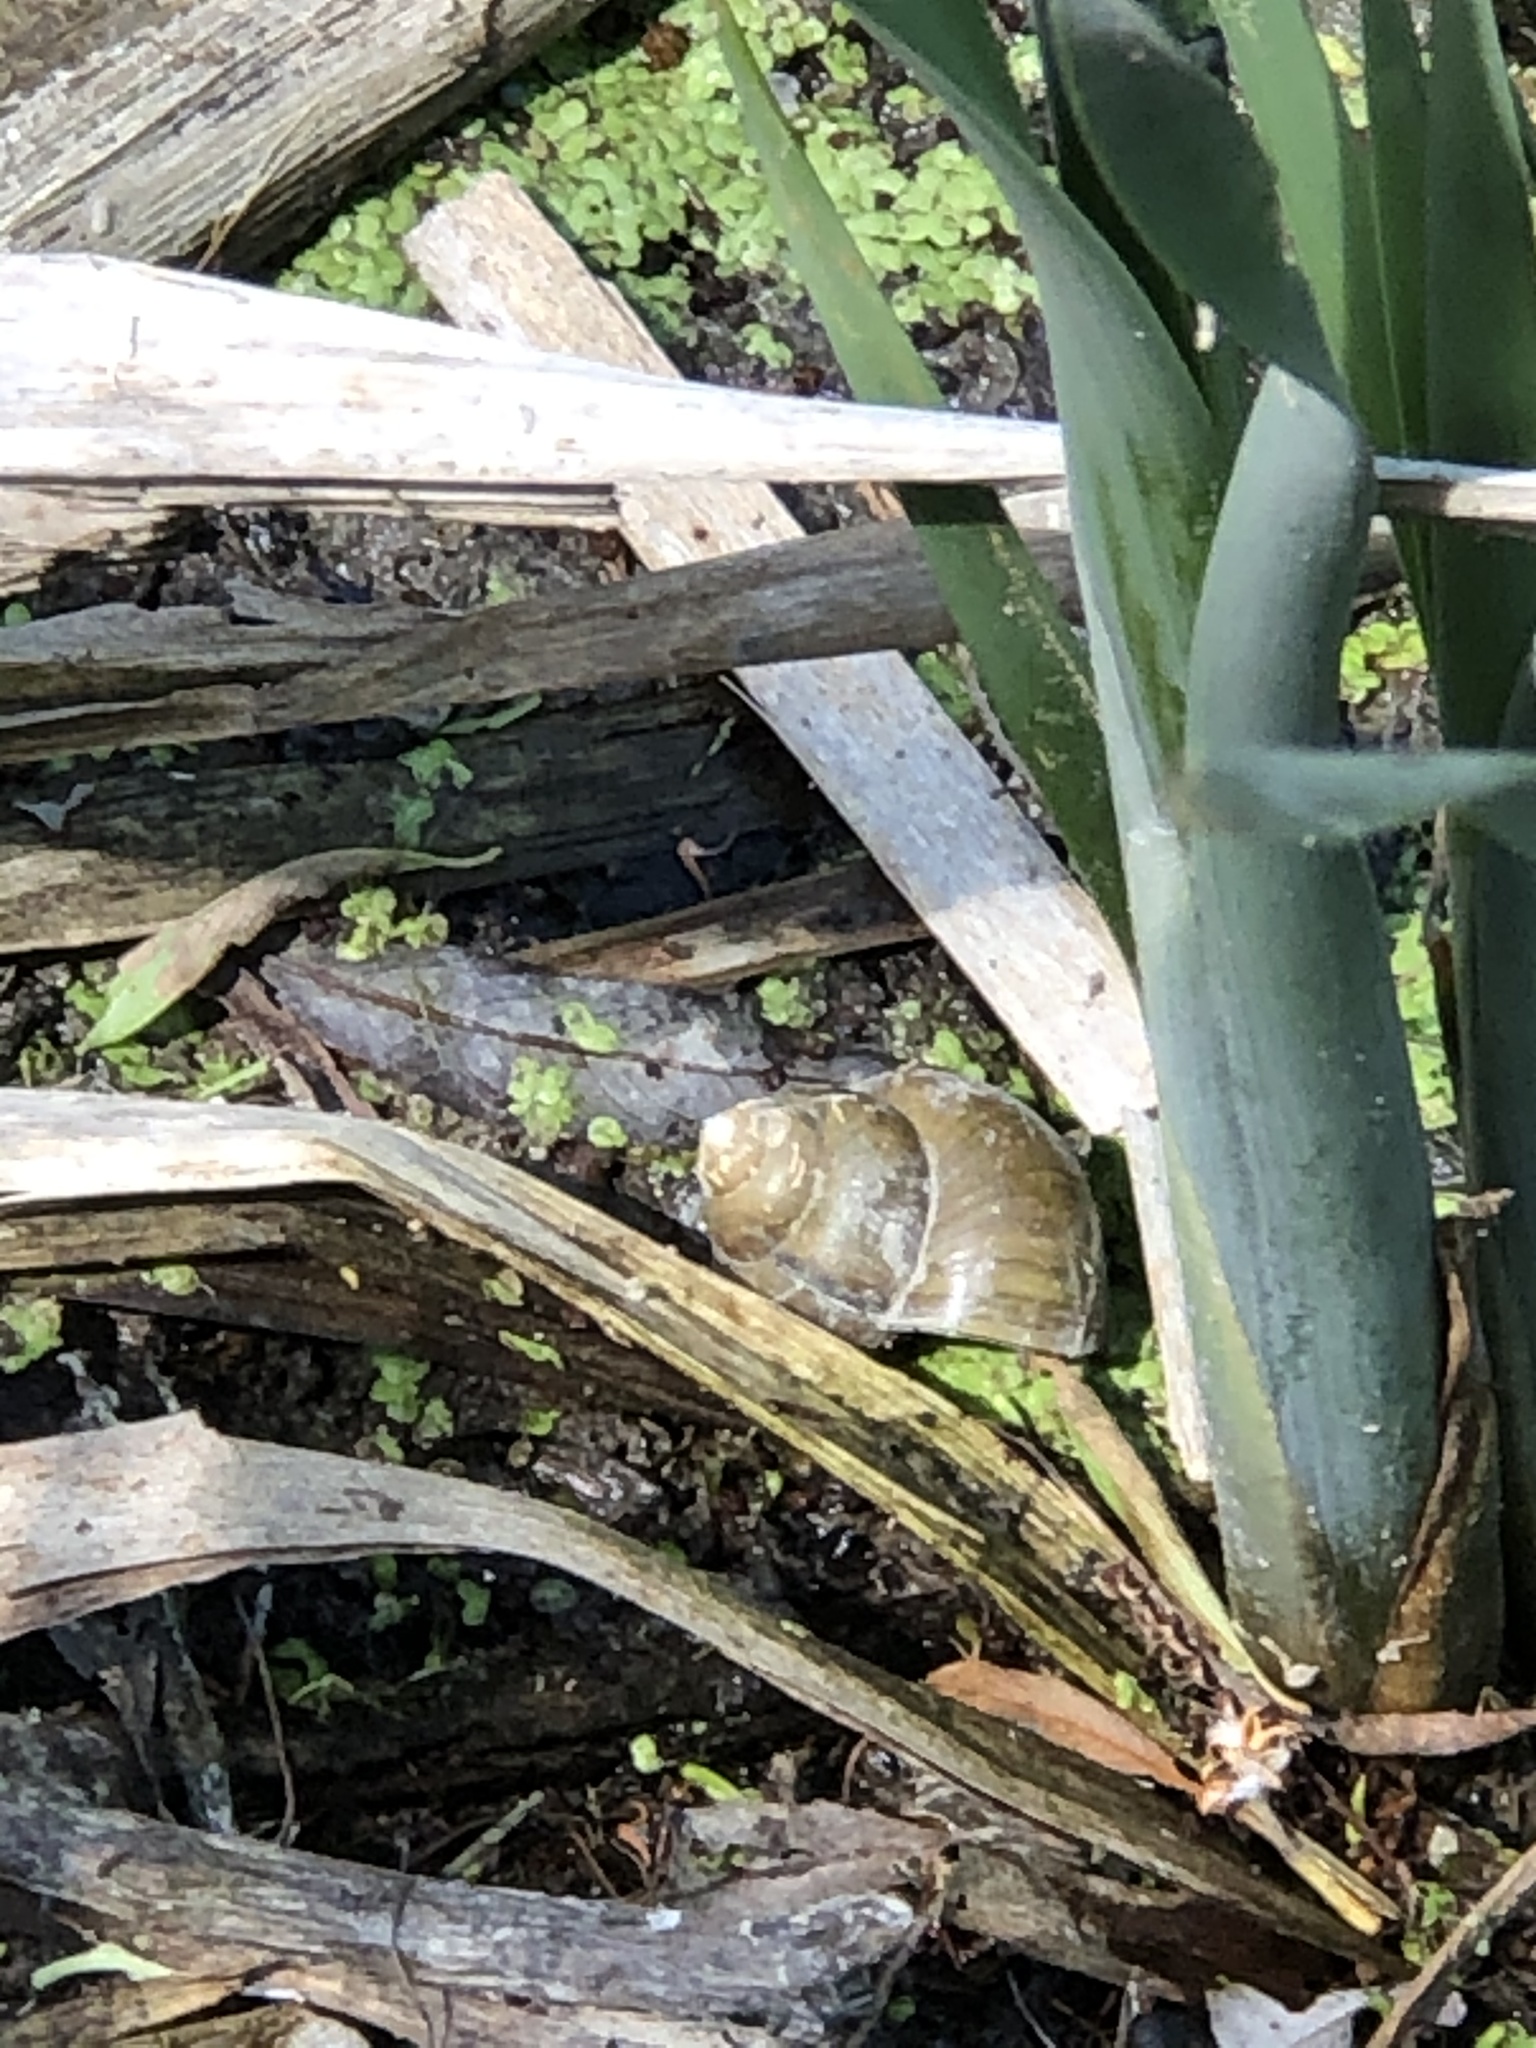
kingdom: Animalia
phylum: Mollusca
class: Gastropoda
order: Architaenioglossa
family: Viviparidae
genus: Cipangopaludina
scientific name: Cipangopaludina chinensis
